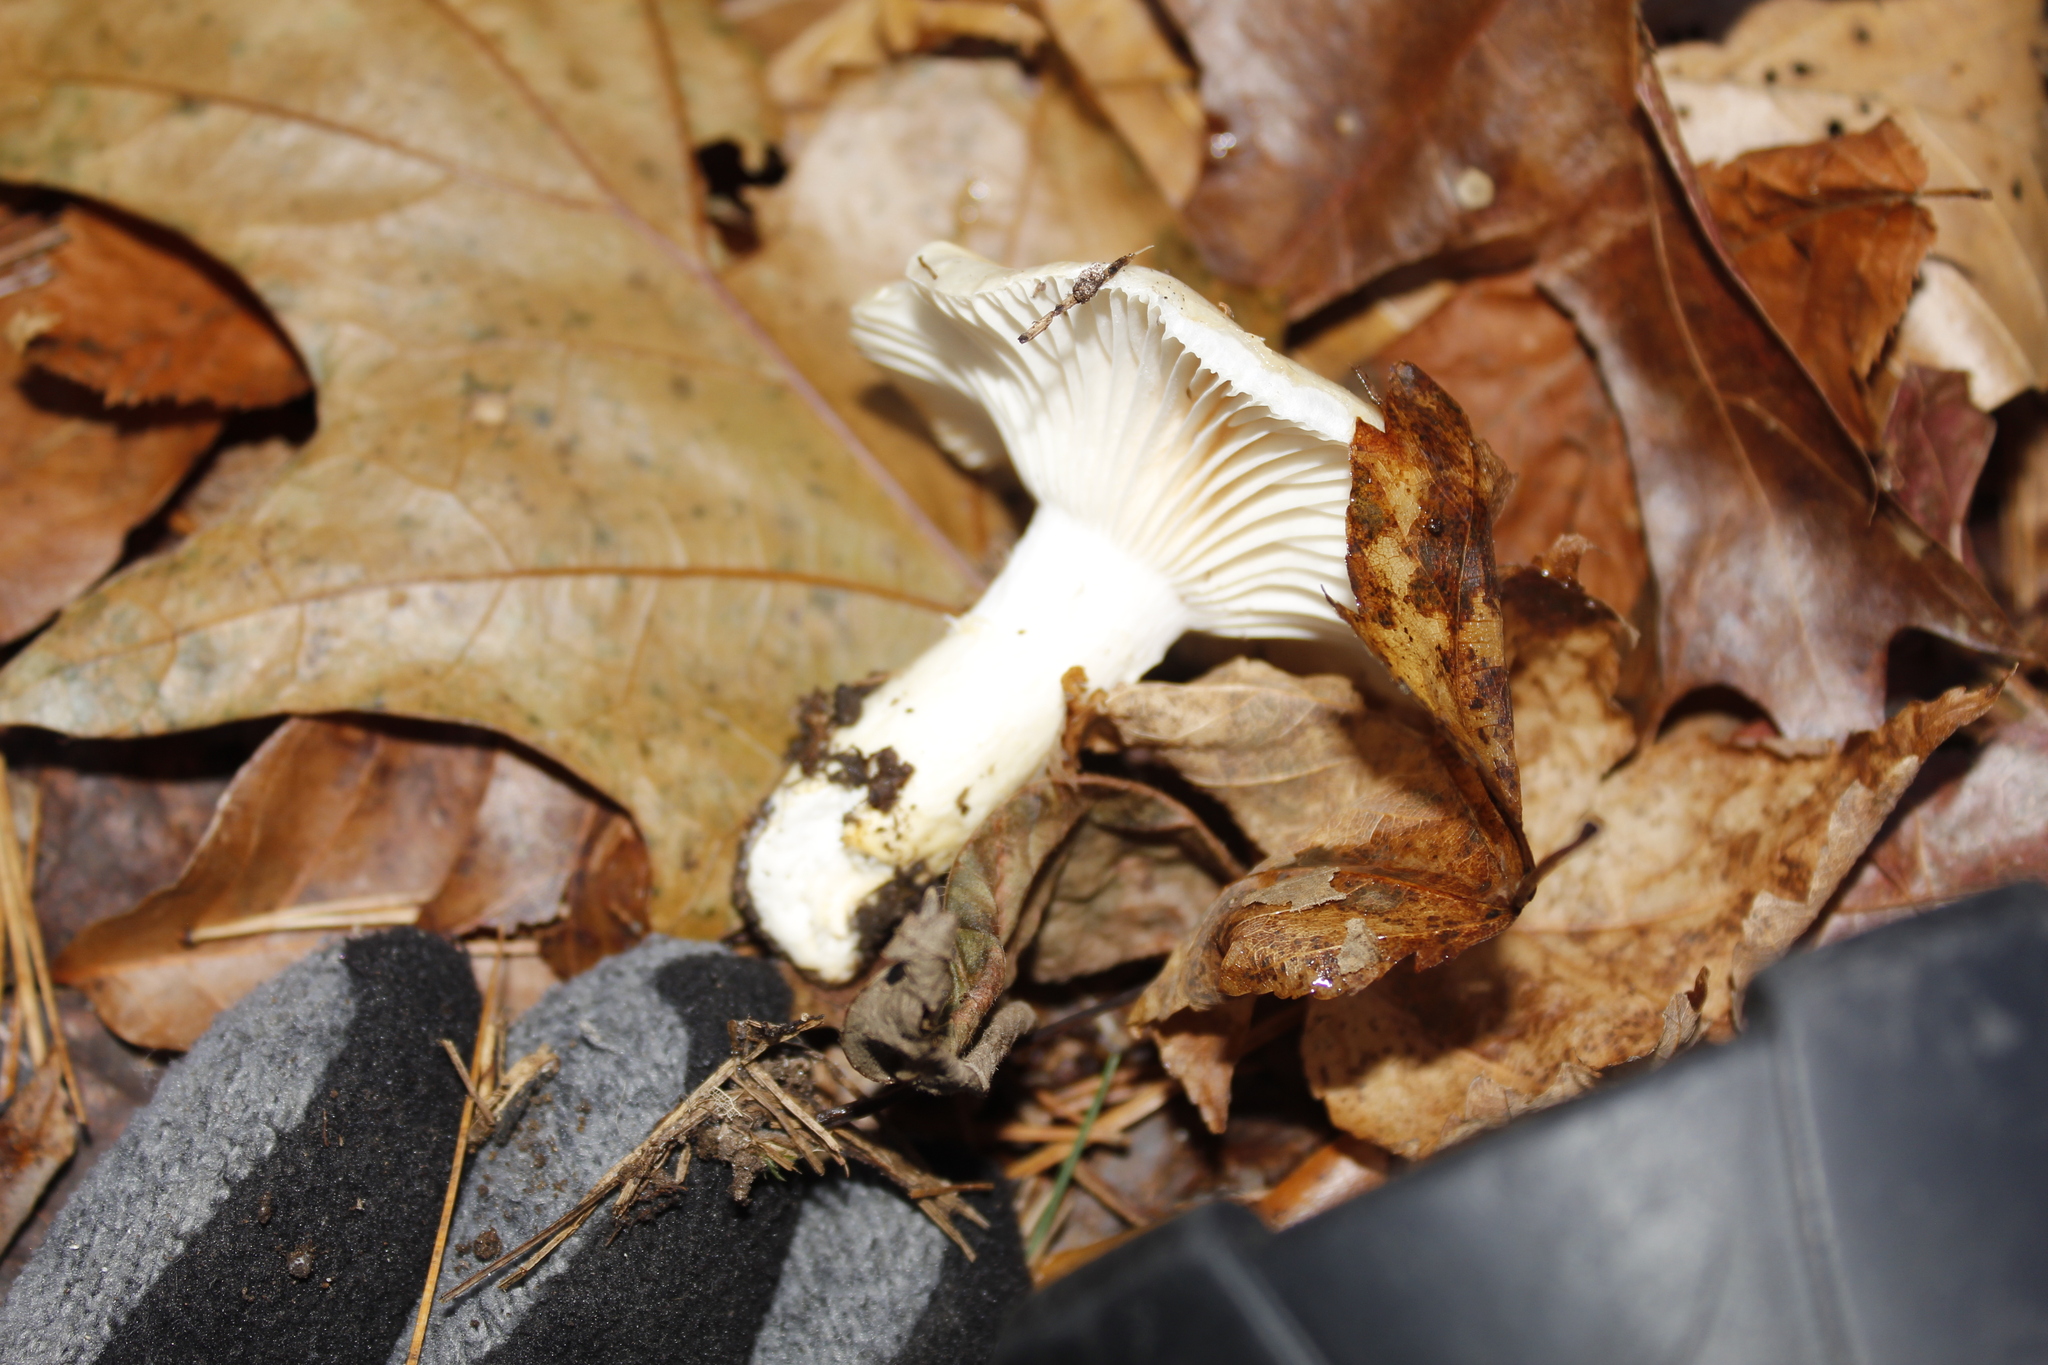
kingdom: Fungi
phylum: Basidiomycota
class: Agaricomycetes
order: Agaricales
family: Hygrophoraceae
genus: Hygrophorus
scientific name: Hygrophorus ligatus
